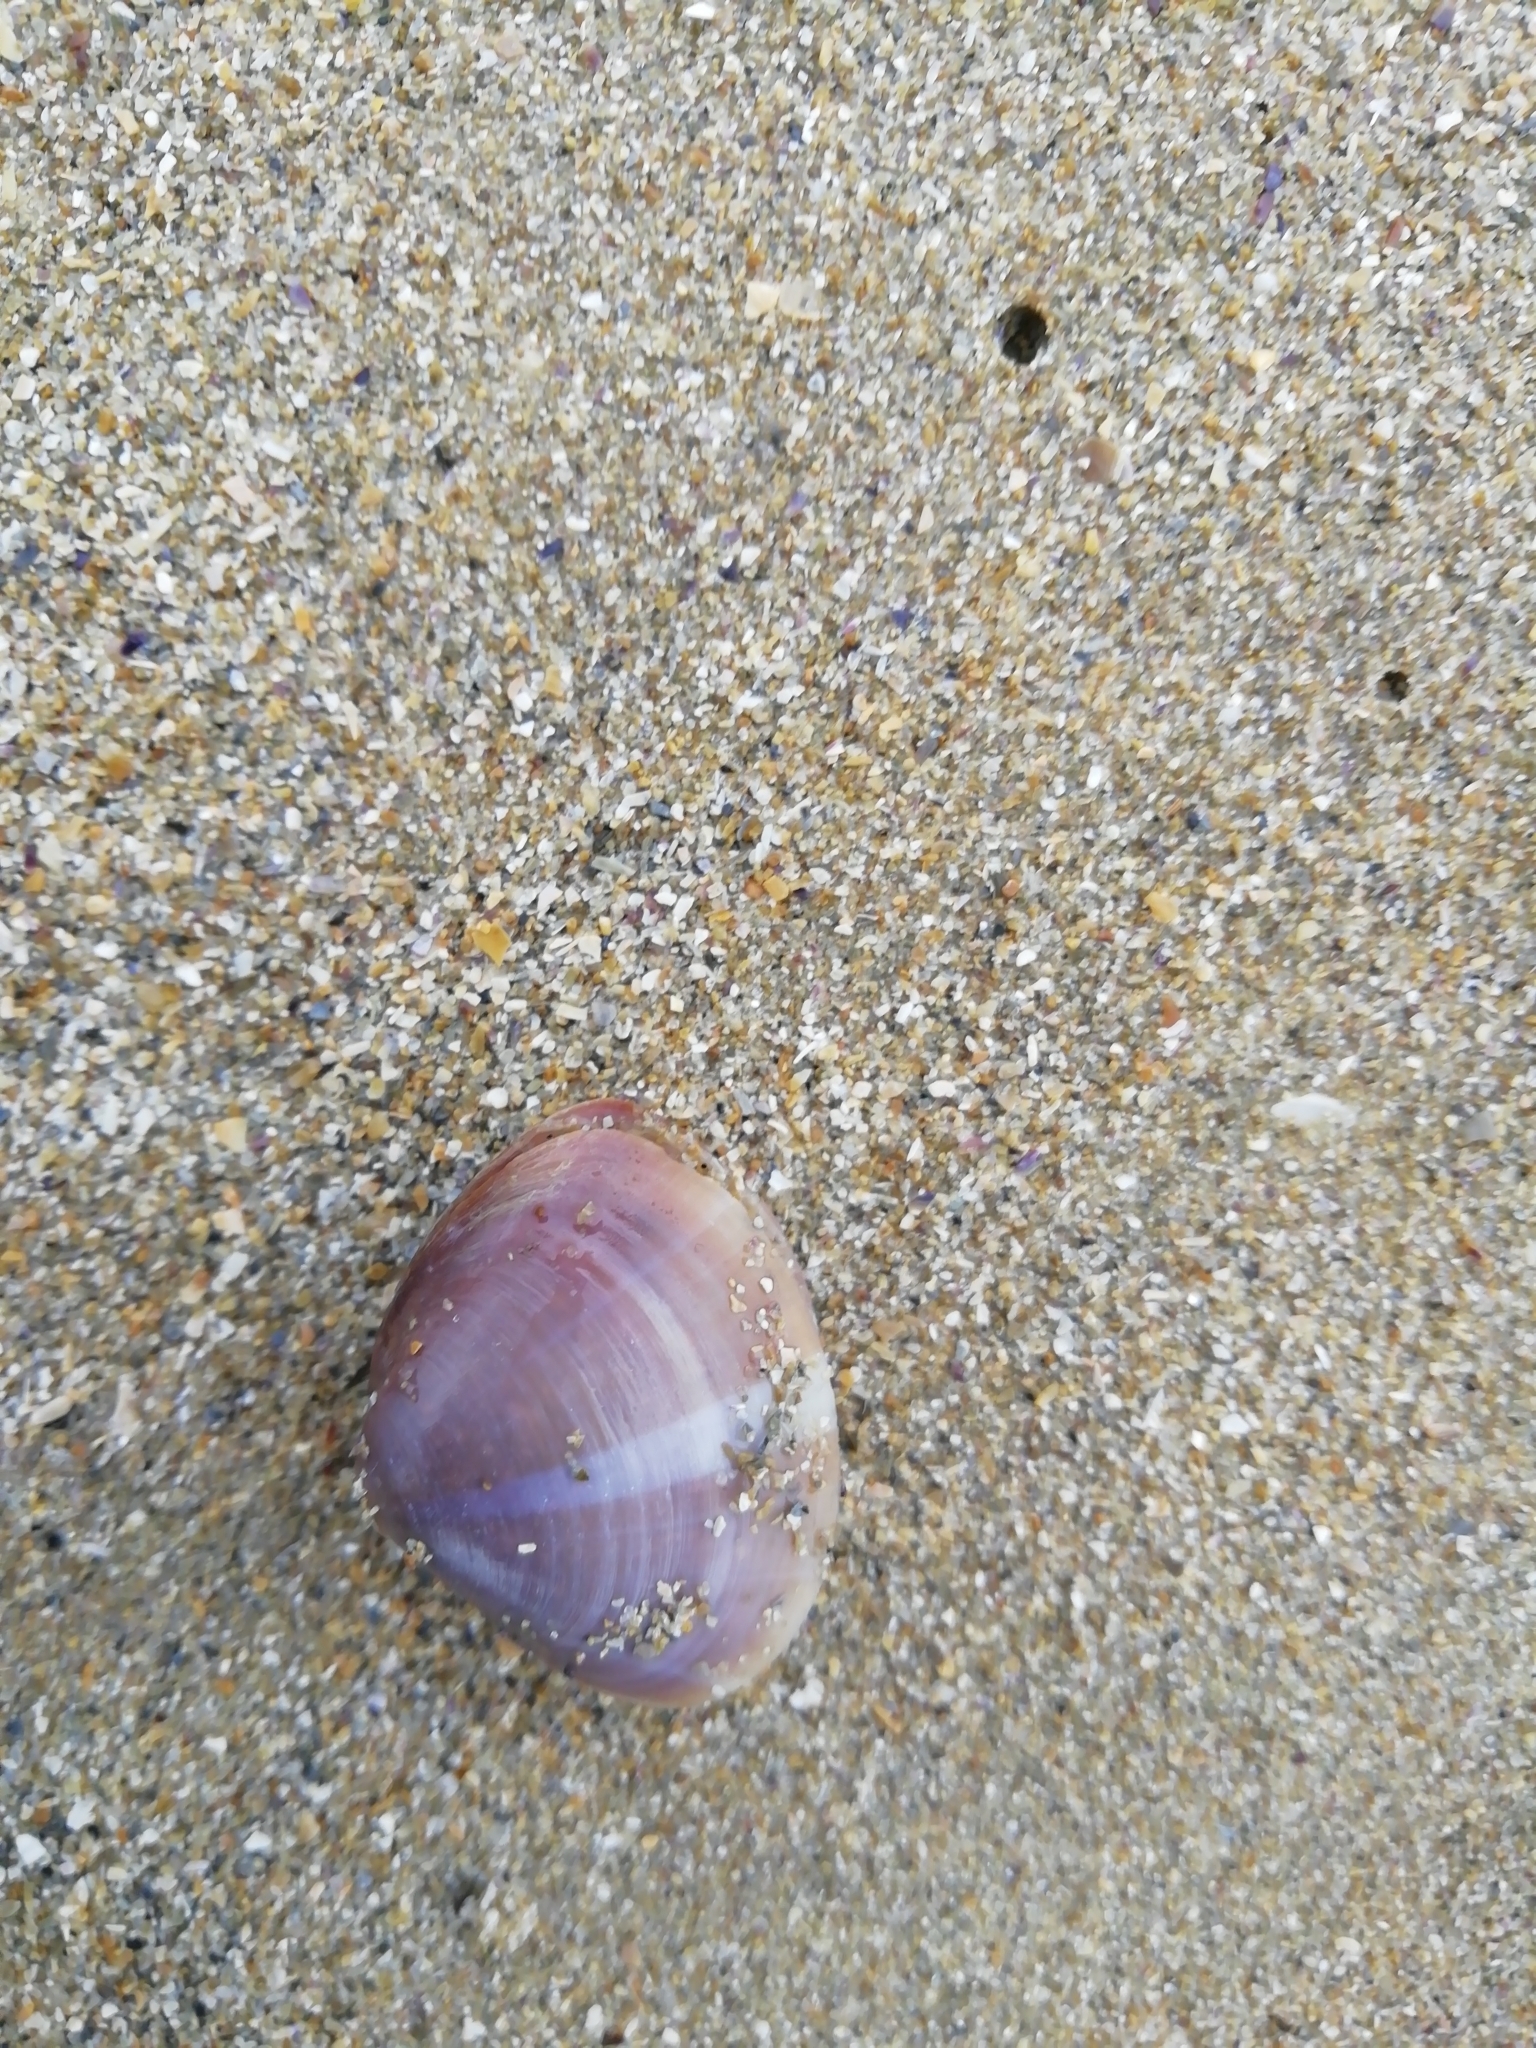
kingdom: Animalia
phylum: Mollusca
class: Bivalvia
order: Venerida
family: Mactridae
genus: Mactra
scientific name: Mactra stultorum
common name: Rayed trough shell
